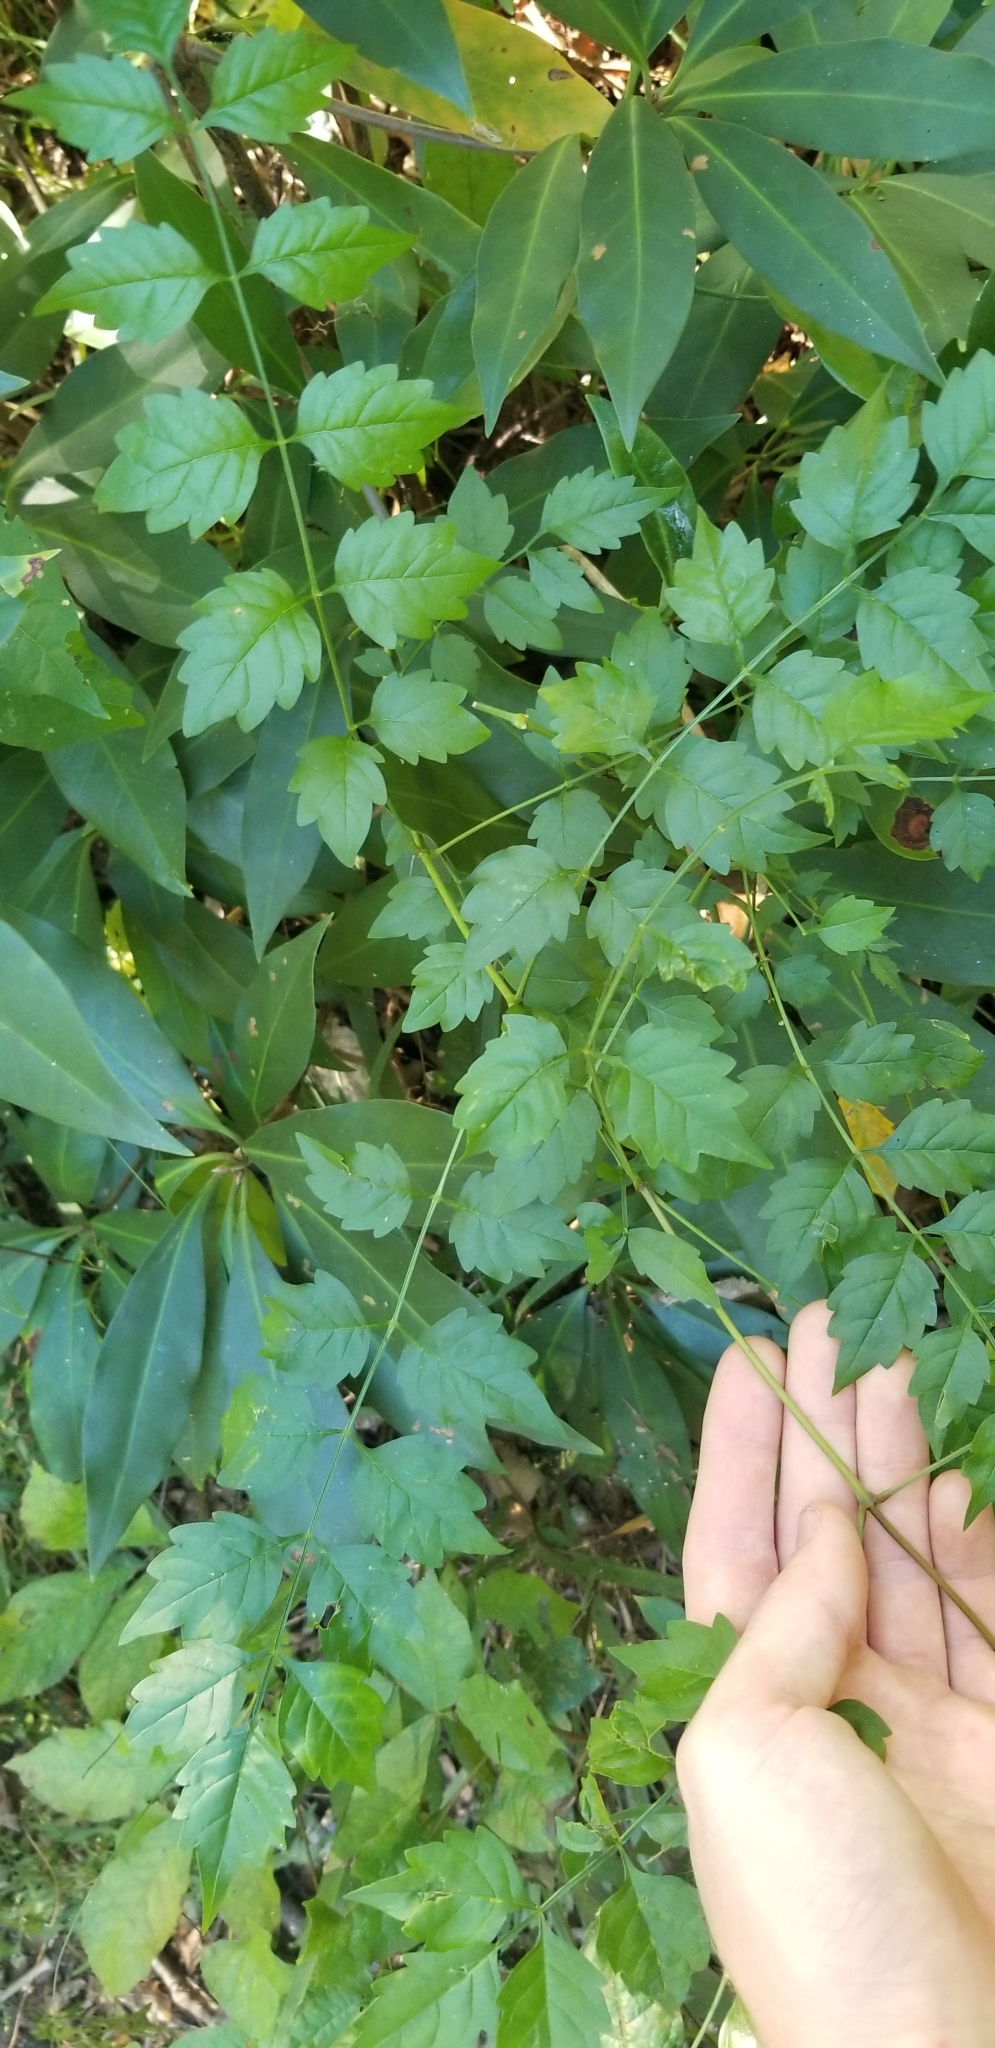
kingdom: Plantae
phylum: Tracheophyta
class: Magnoliopsida
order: Lamiales
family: Bignoniaceae
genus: Campsis
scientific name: Campsis radicans
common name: Trumpet-creeper
